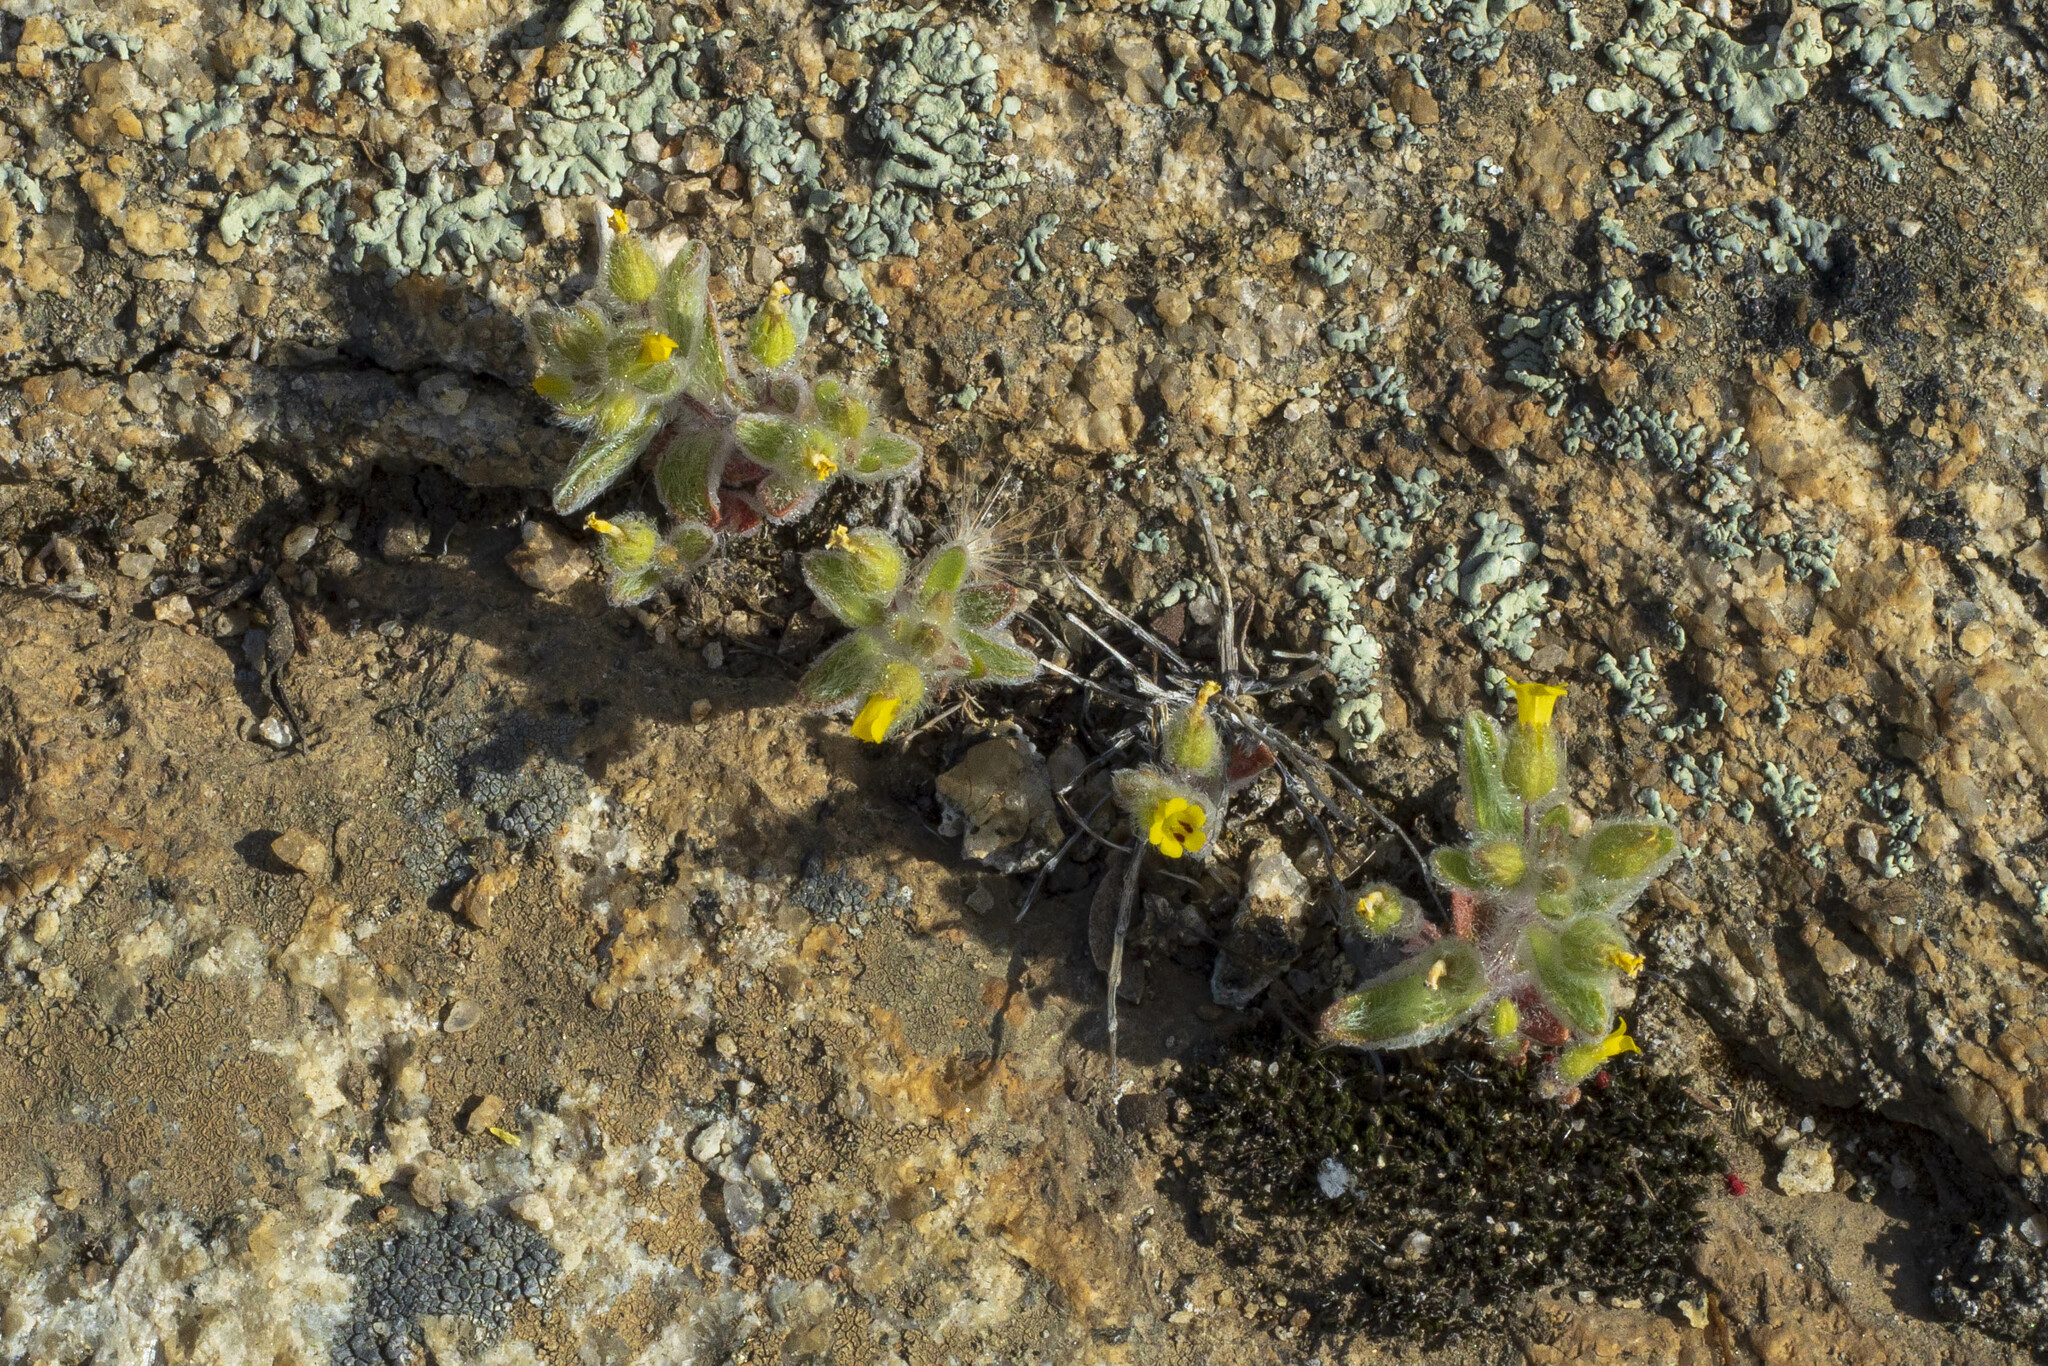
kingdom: Plantae
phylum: Tracheophyta
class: Magnoliopsida
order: Lamiales
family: Phrymaceae
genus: Mimetanthe
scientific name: Mimetanthe pilosa
